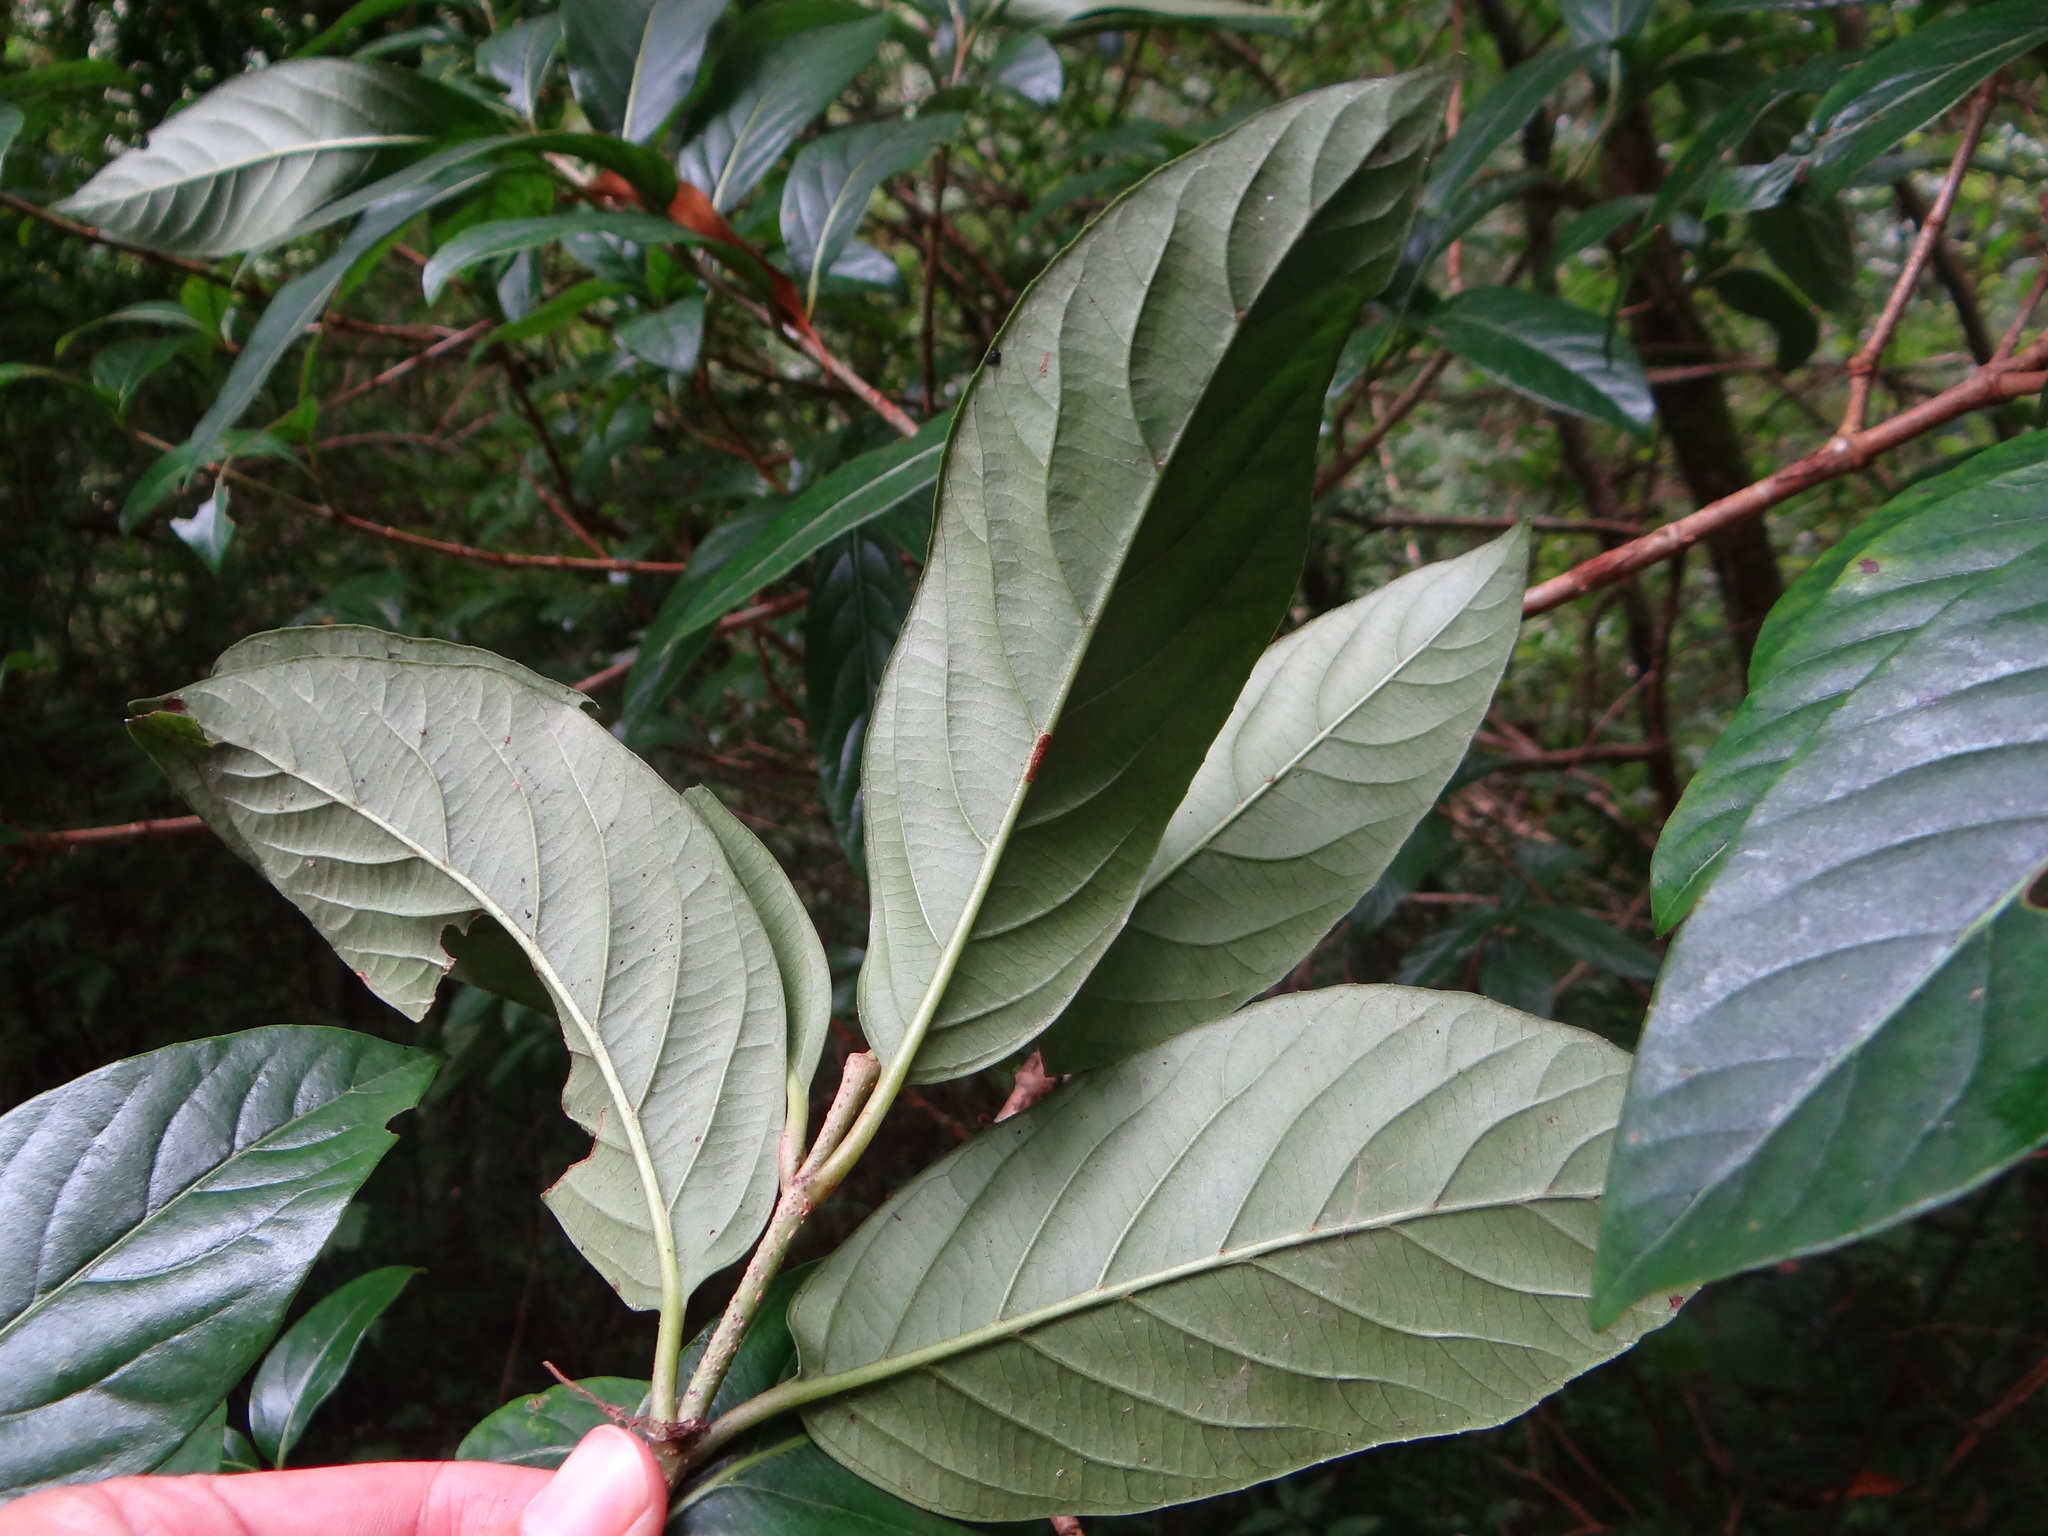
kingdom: Plantae
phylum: Tracheophyta
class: Magnoliopsida
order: Dipsacales
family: Viburnaceae
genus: Viburnum
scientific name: Viburnum odoratissimum
